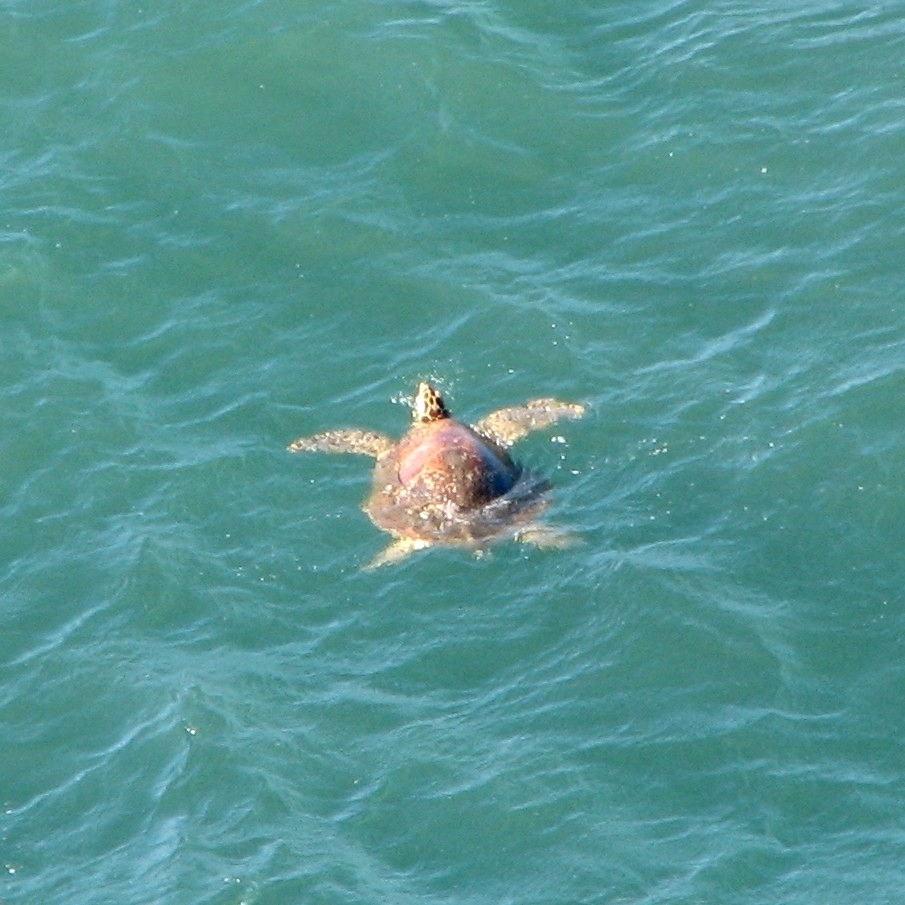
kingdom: Animalia
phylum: Chordata
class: Testudines
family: Cheloniidae
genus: Eretmochelys
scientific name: Eretmochelys imbricata
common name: Hawksbill turtle
